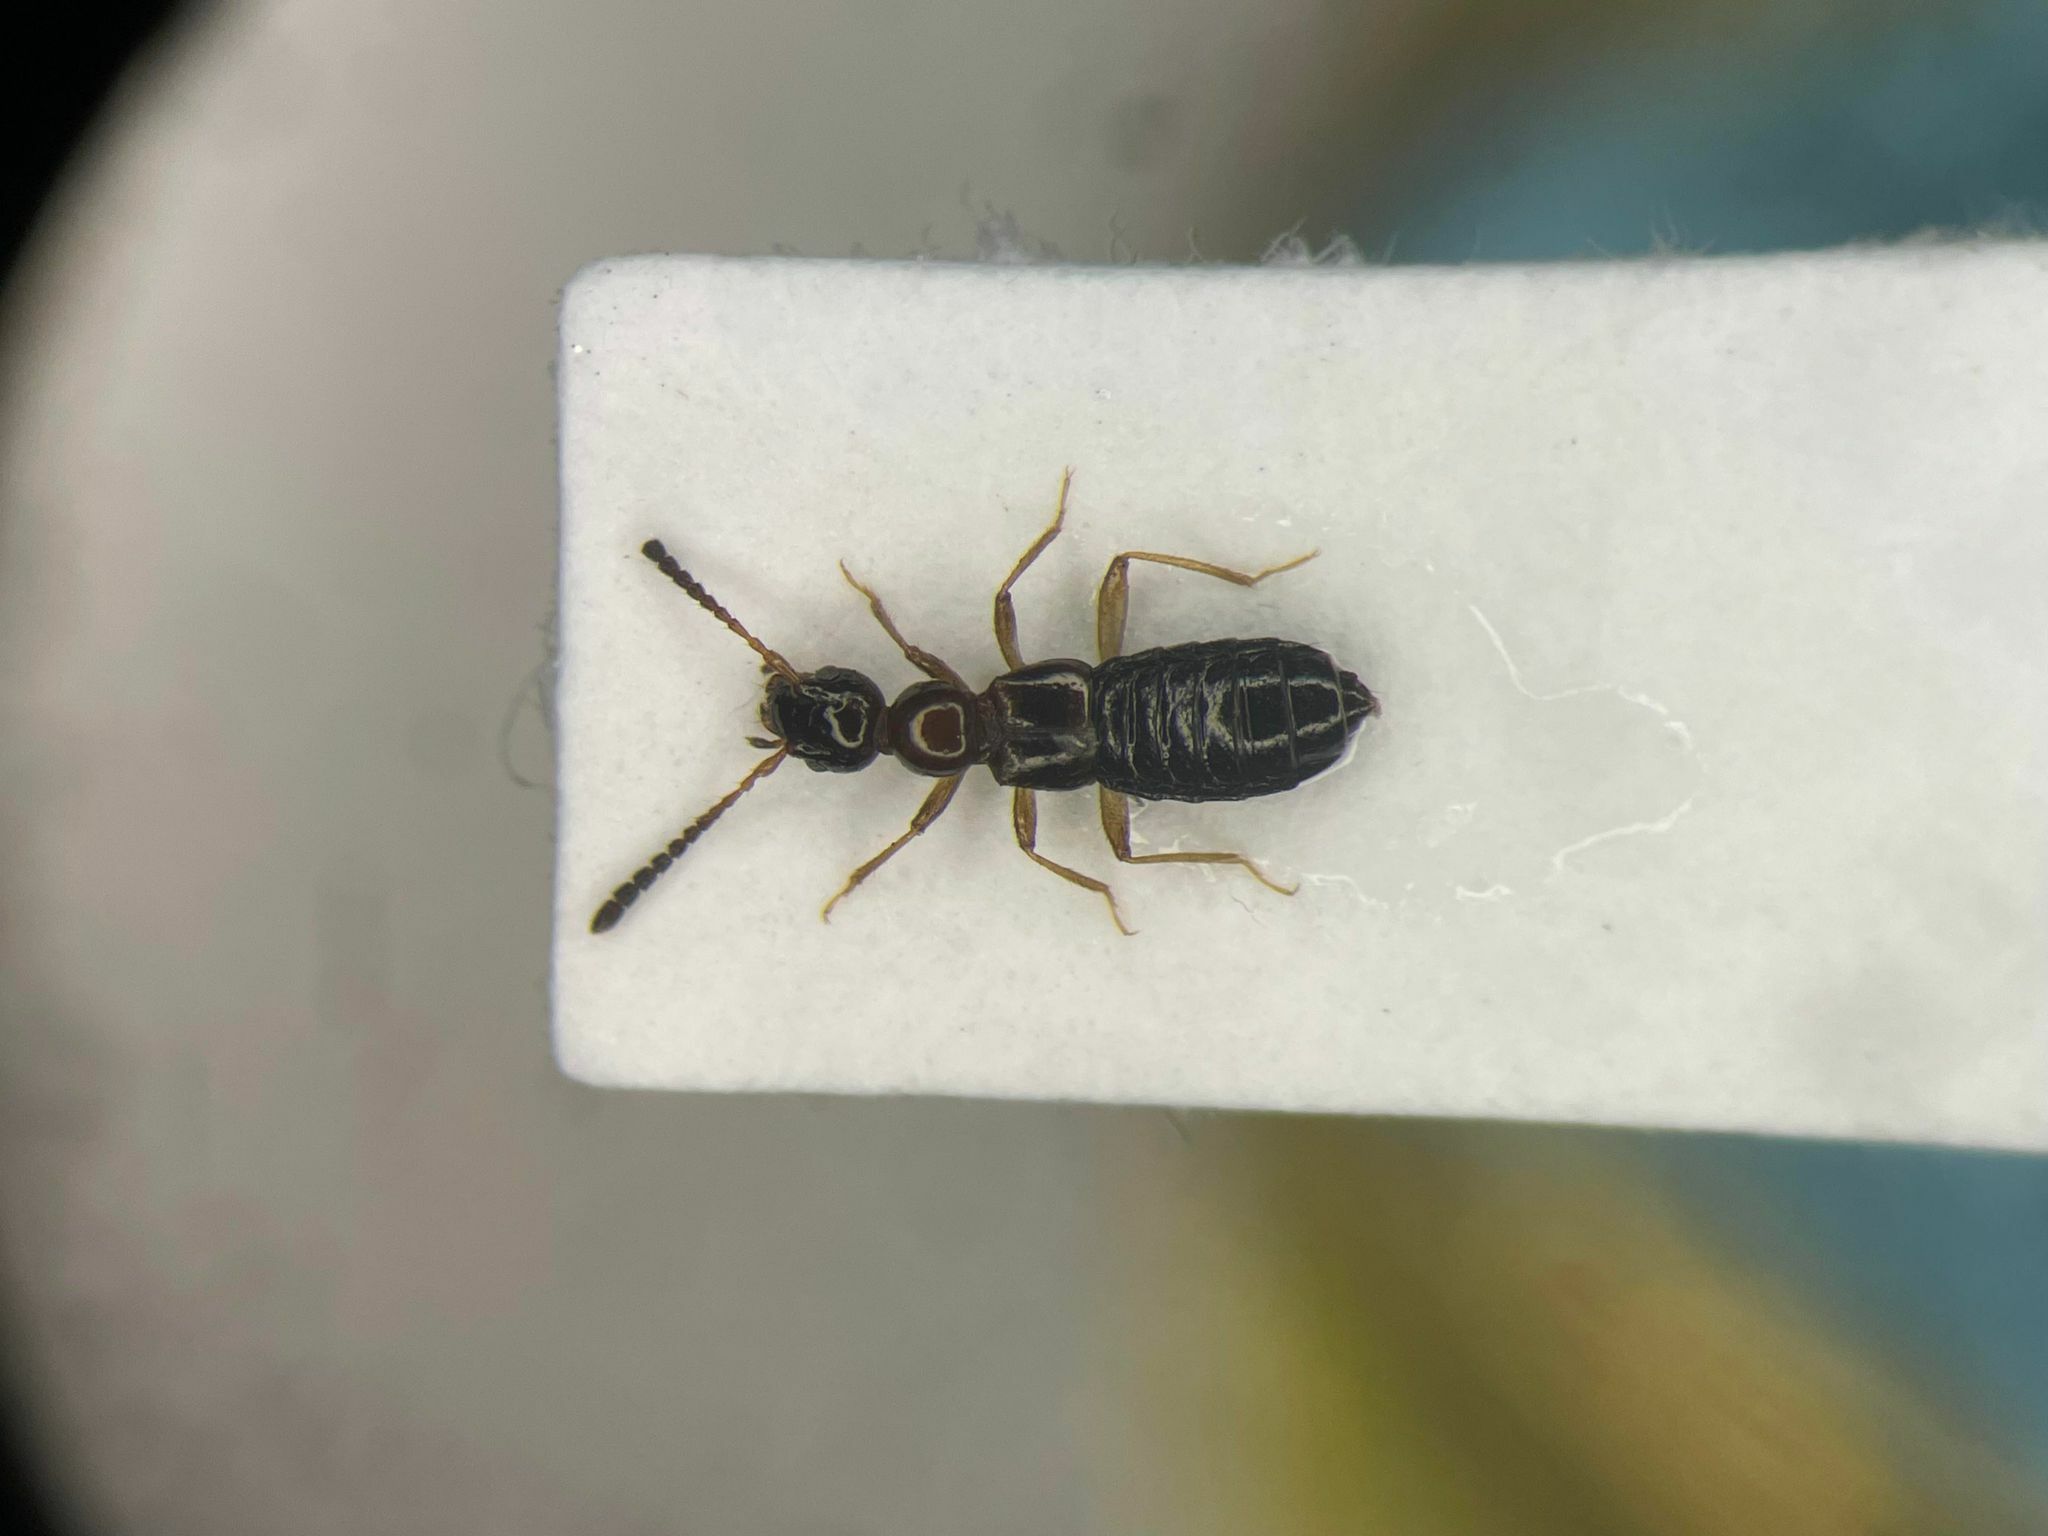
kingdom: Animalia
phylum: Arthropoda
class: Insecta
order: Coleoptera
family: Staphylinidae
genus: Apocellus
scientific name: Apocellus sphaericollis
